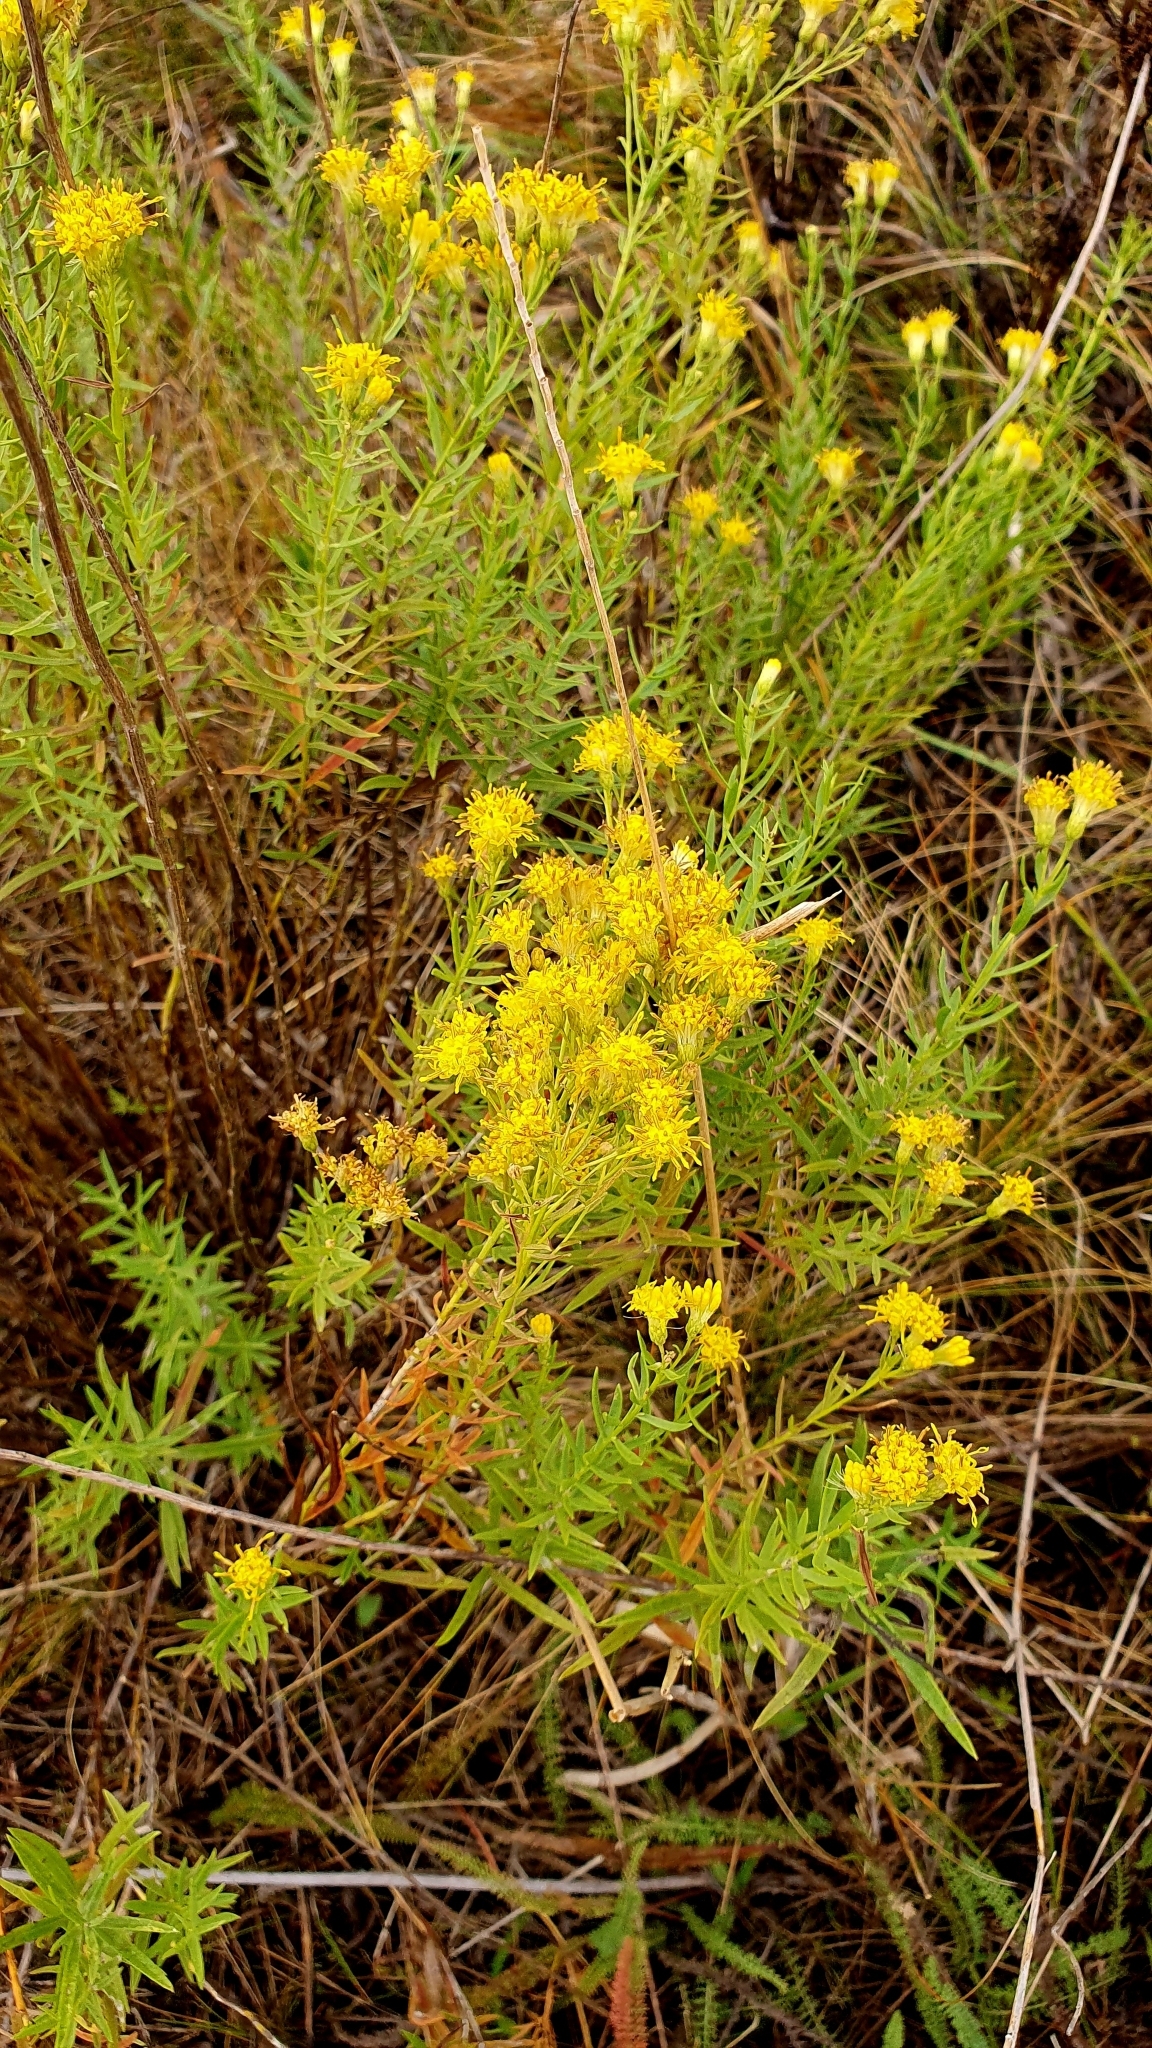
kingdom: Plantae
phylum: Tracheophyta
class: Magnoliopsida
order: Asterales
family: Asteraceae
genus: Galatella
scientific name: Galatella biflora
